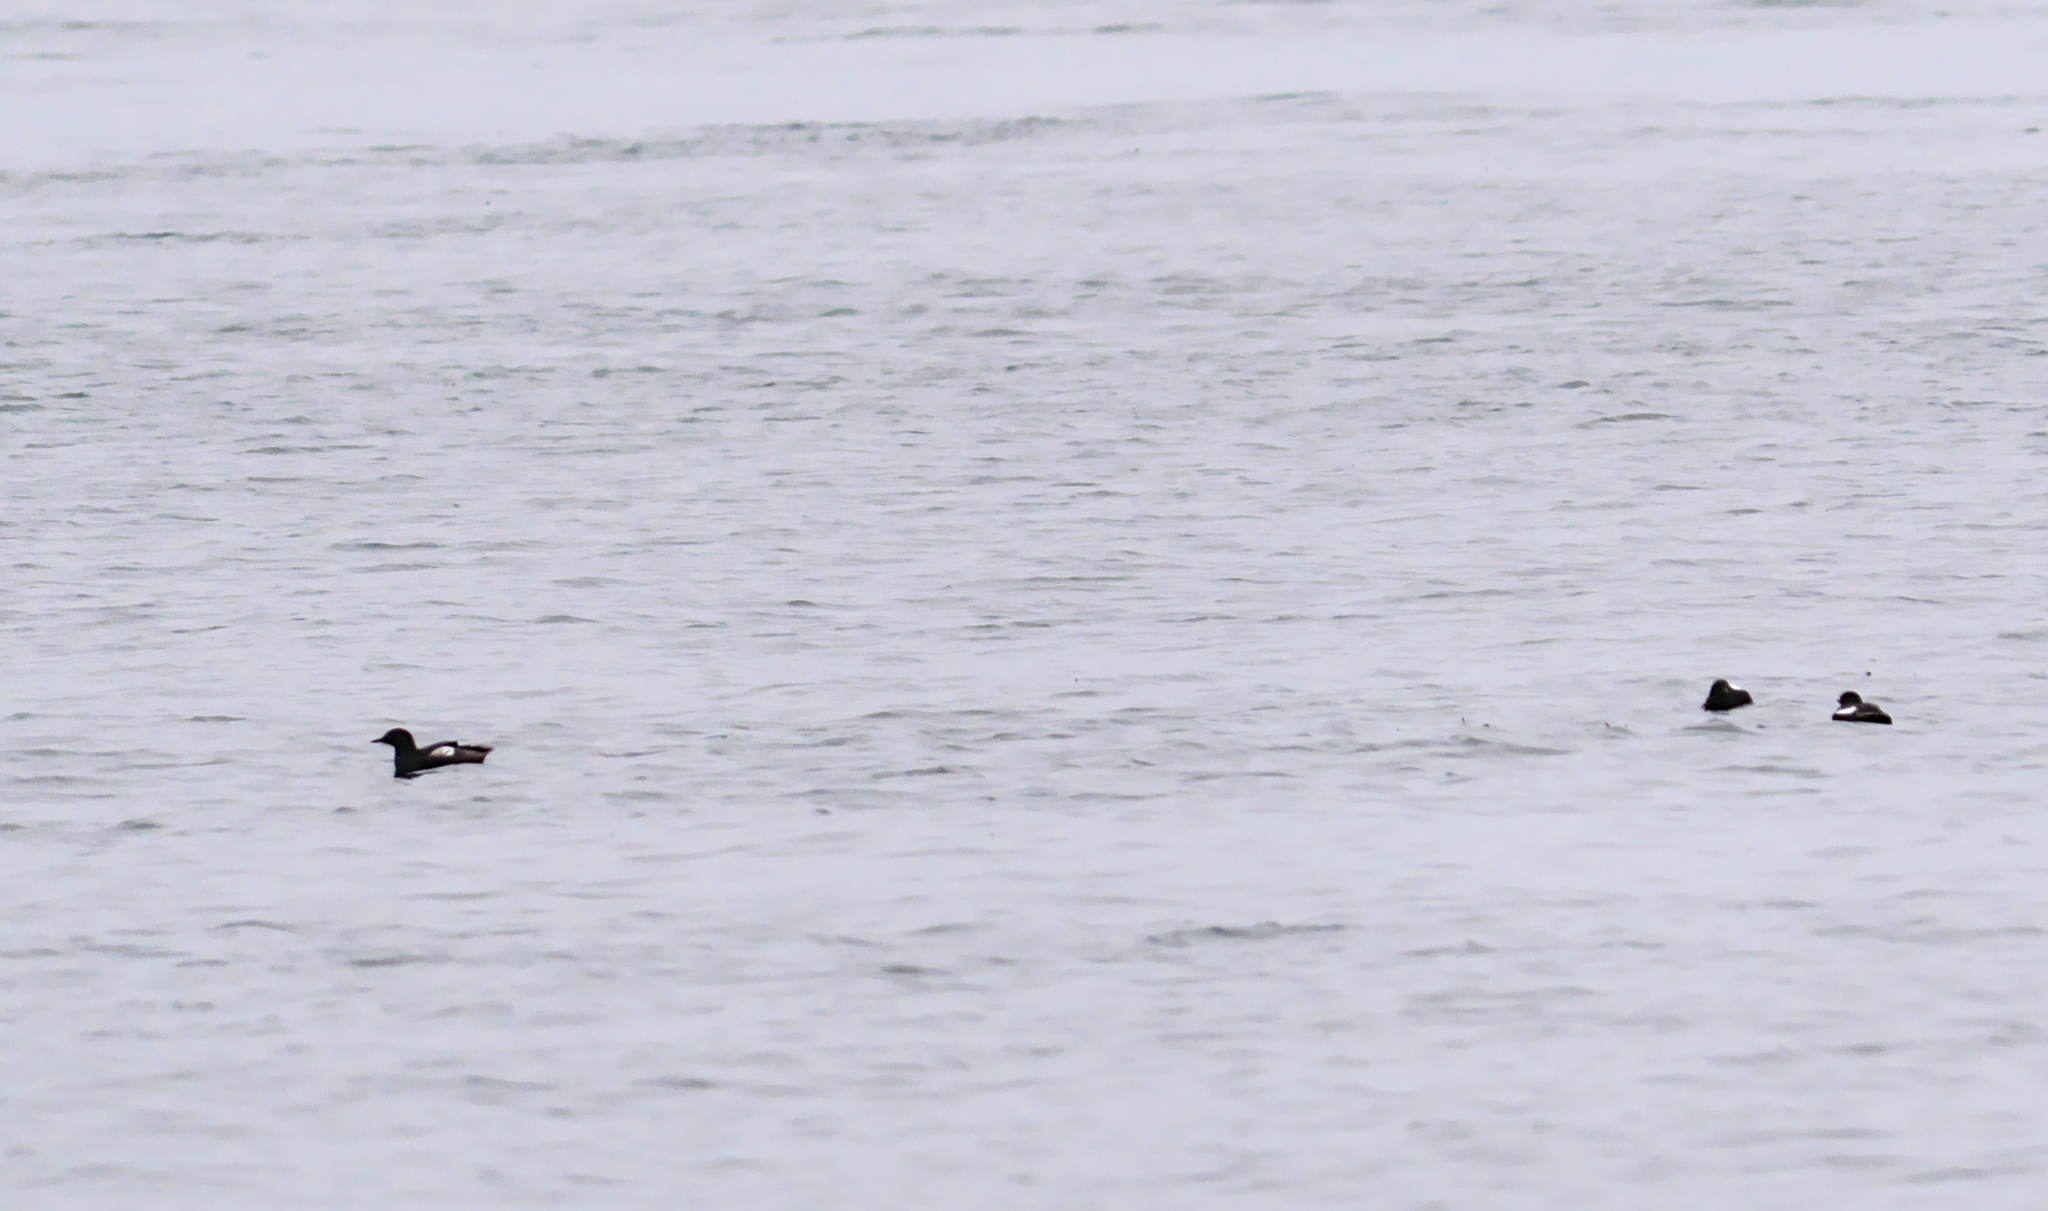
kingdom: Animalia
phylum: Chordata
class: Aves
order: Charadriiformes
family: Alcidae
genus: Cepphus
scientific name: Cepphus grylle
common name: Black guillemot
